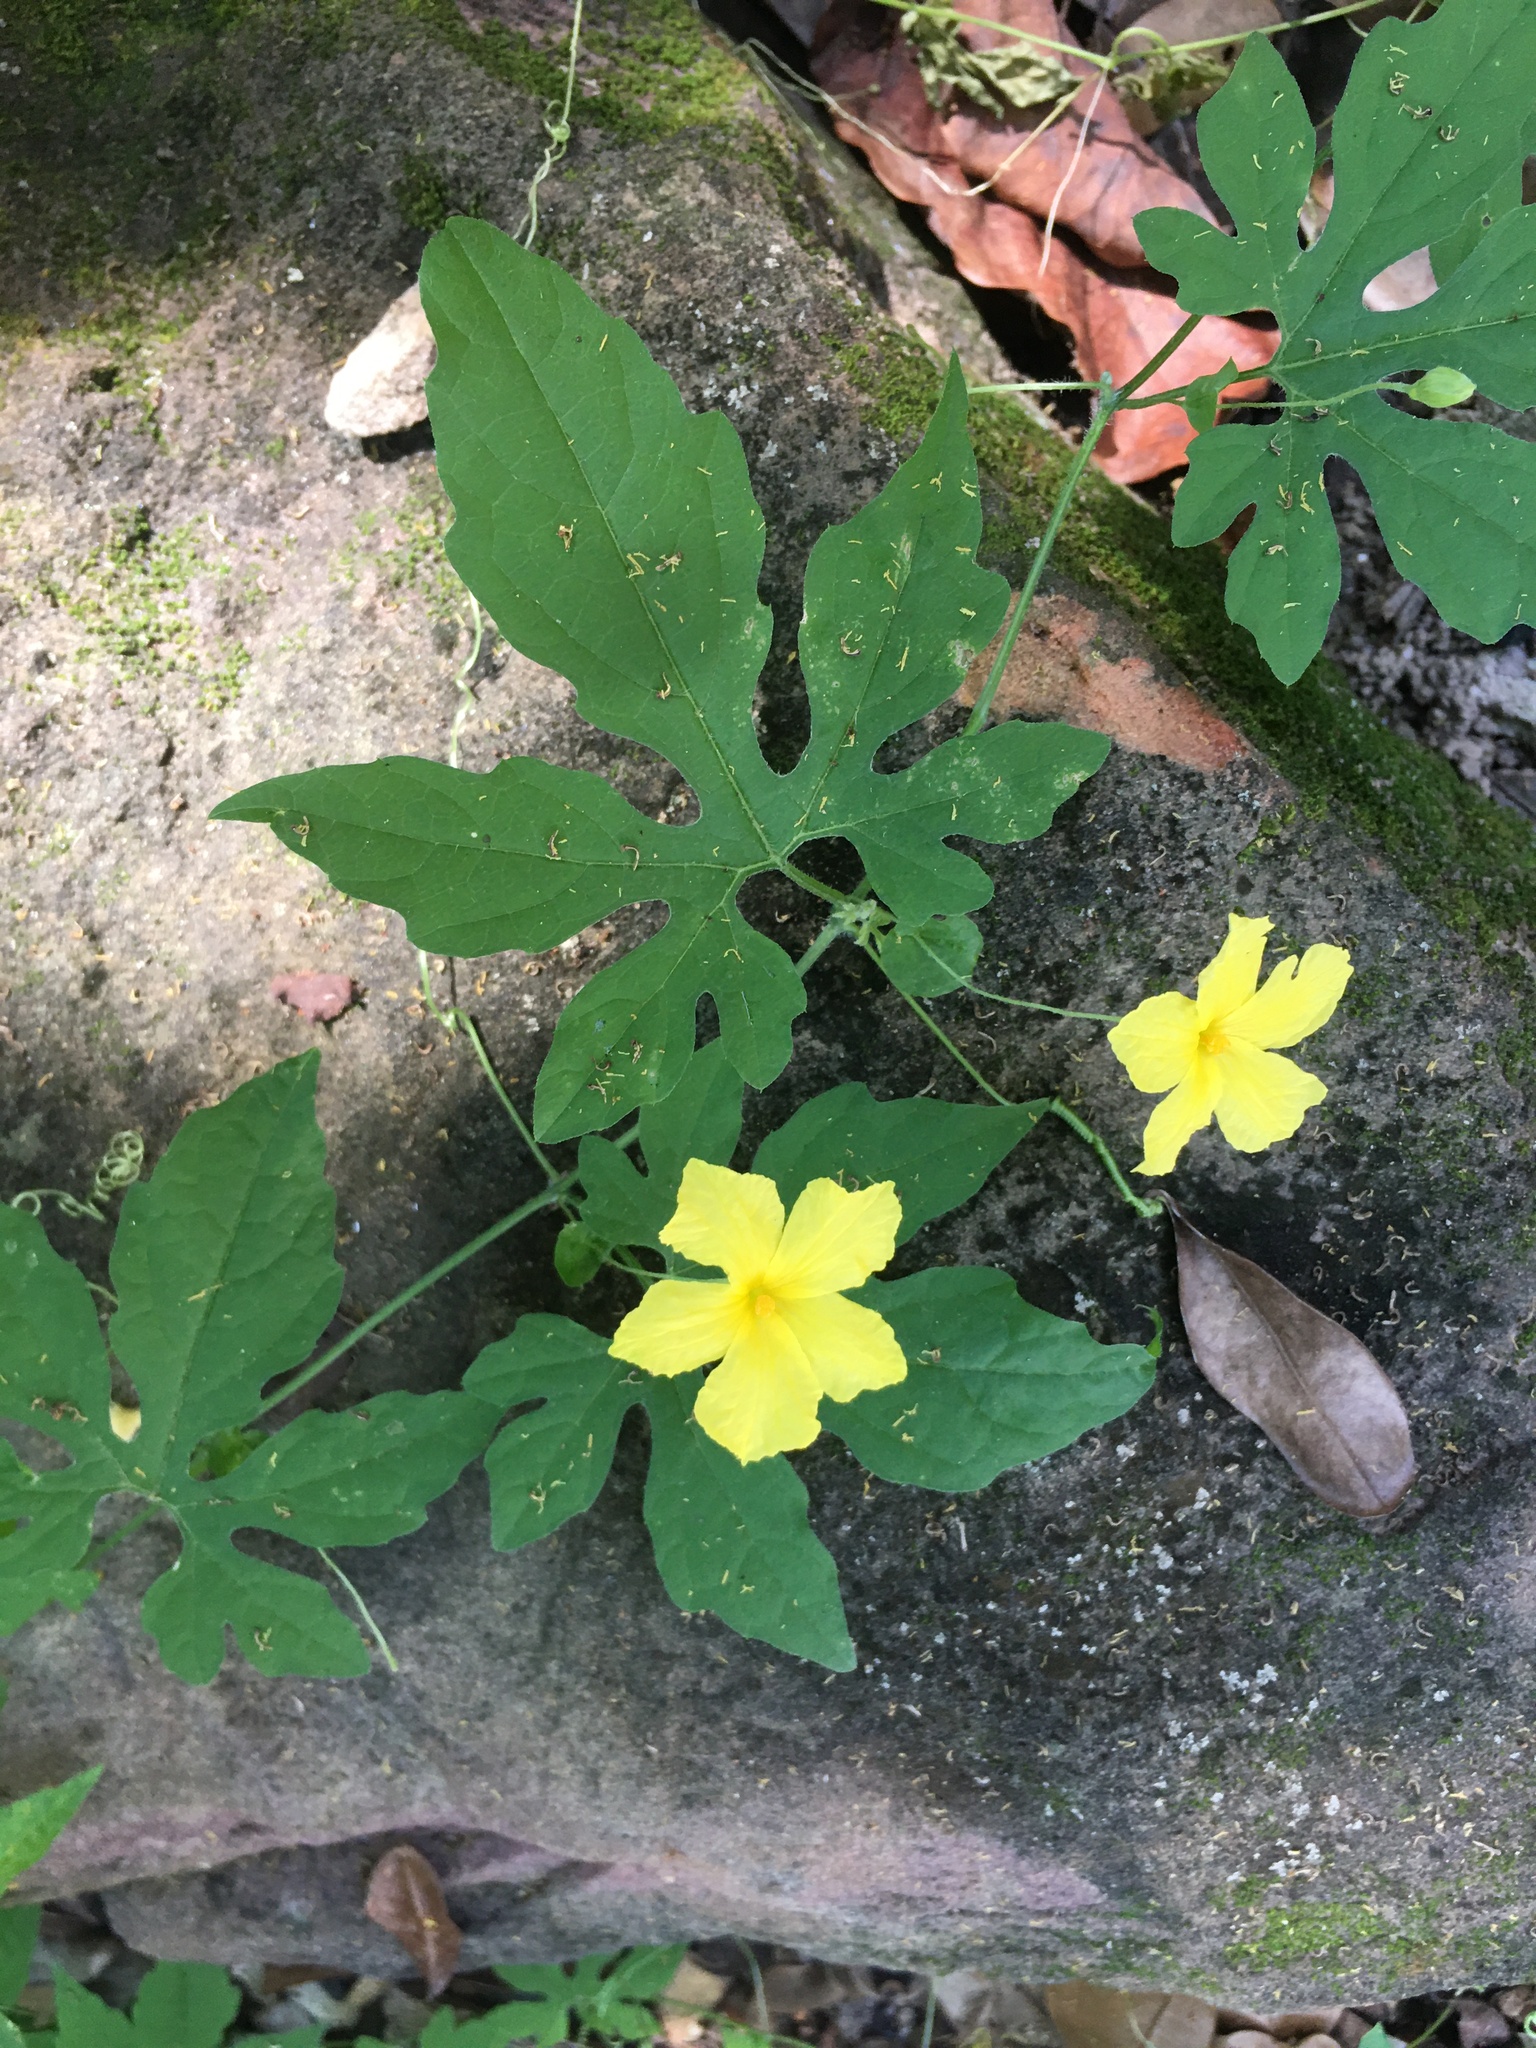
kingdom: Plantae
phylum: Tracheophyta
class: Magnoliopsida
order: Cucurbitales
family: Cucurbitaceae
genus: Momordica
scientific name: Momordica charantia
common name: Balsampear
